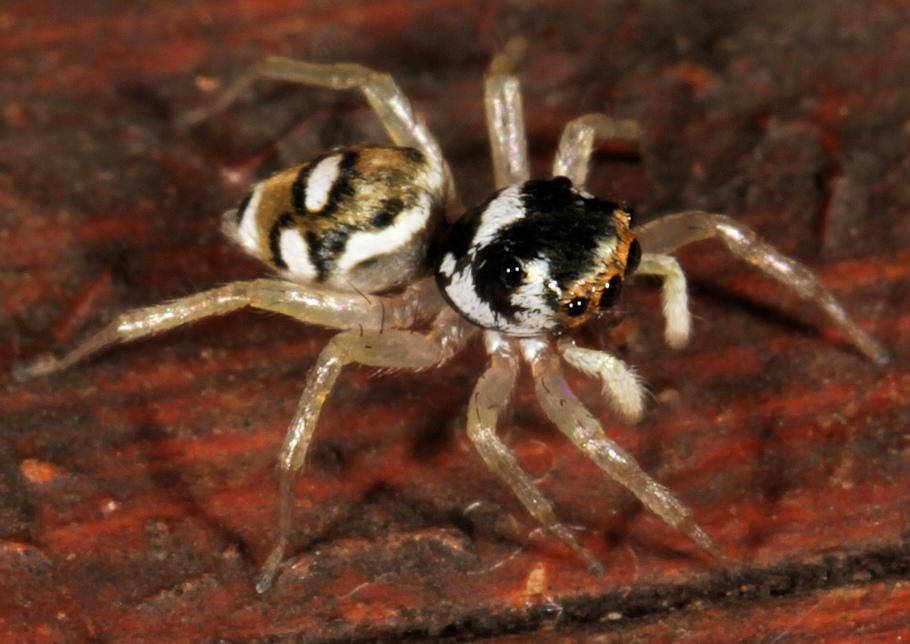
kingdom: Animalia
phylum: Arthropoda
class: Arachnida
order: Araneae
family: Salticidae
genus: Phintella
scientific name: Phintella aequipes
